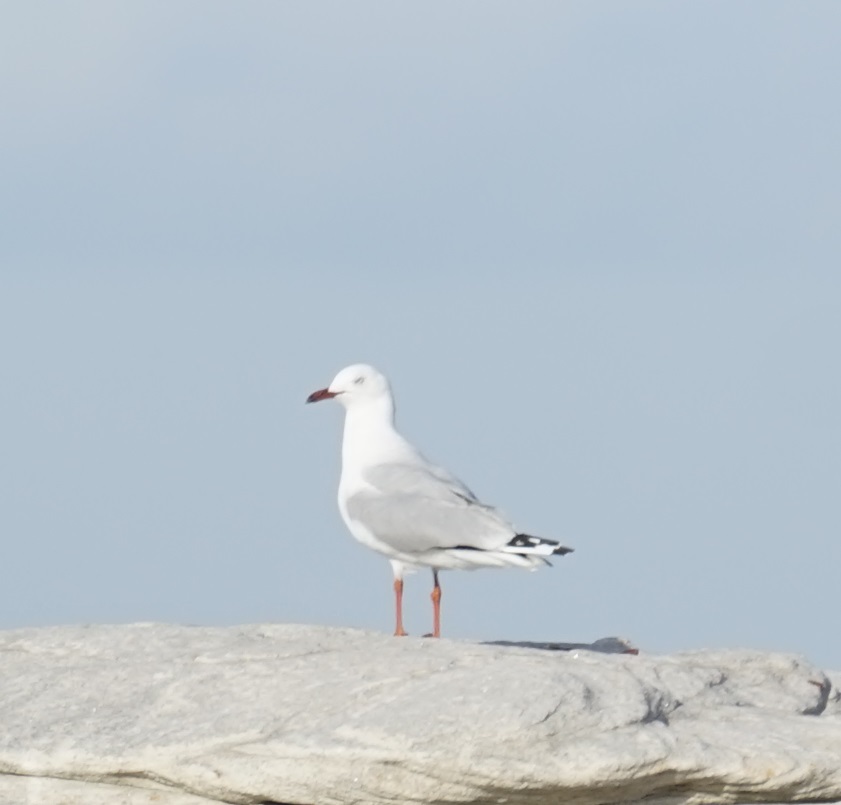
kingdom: Animalia
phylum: Chordata
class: Aves
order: Charadriiformes
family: Laridae
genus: Chroicocephalus
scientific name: Chroicocephalus novaehollandiae
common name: Silver gull
